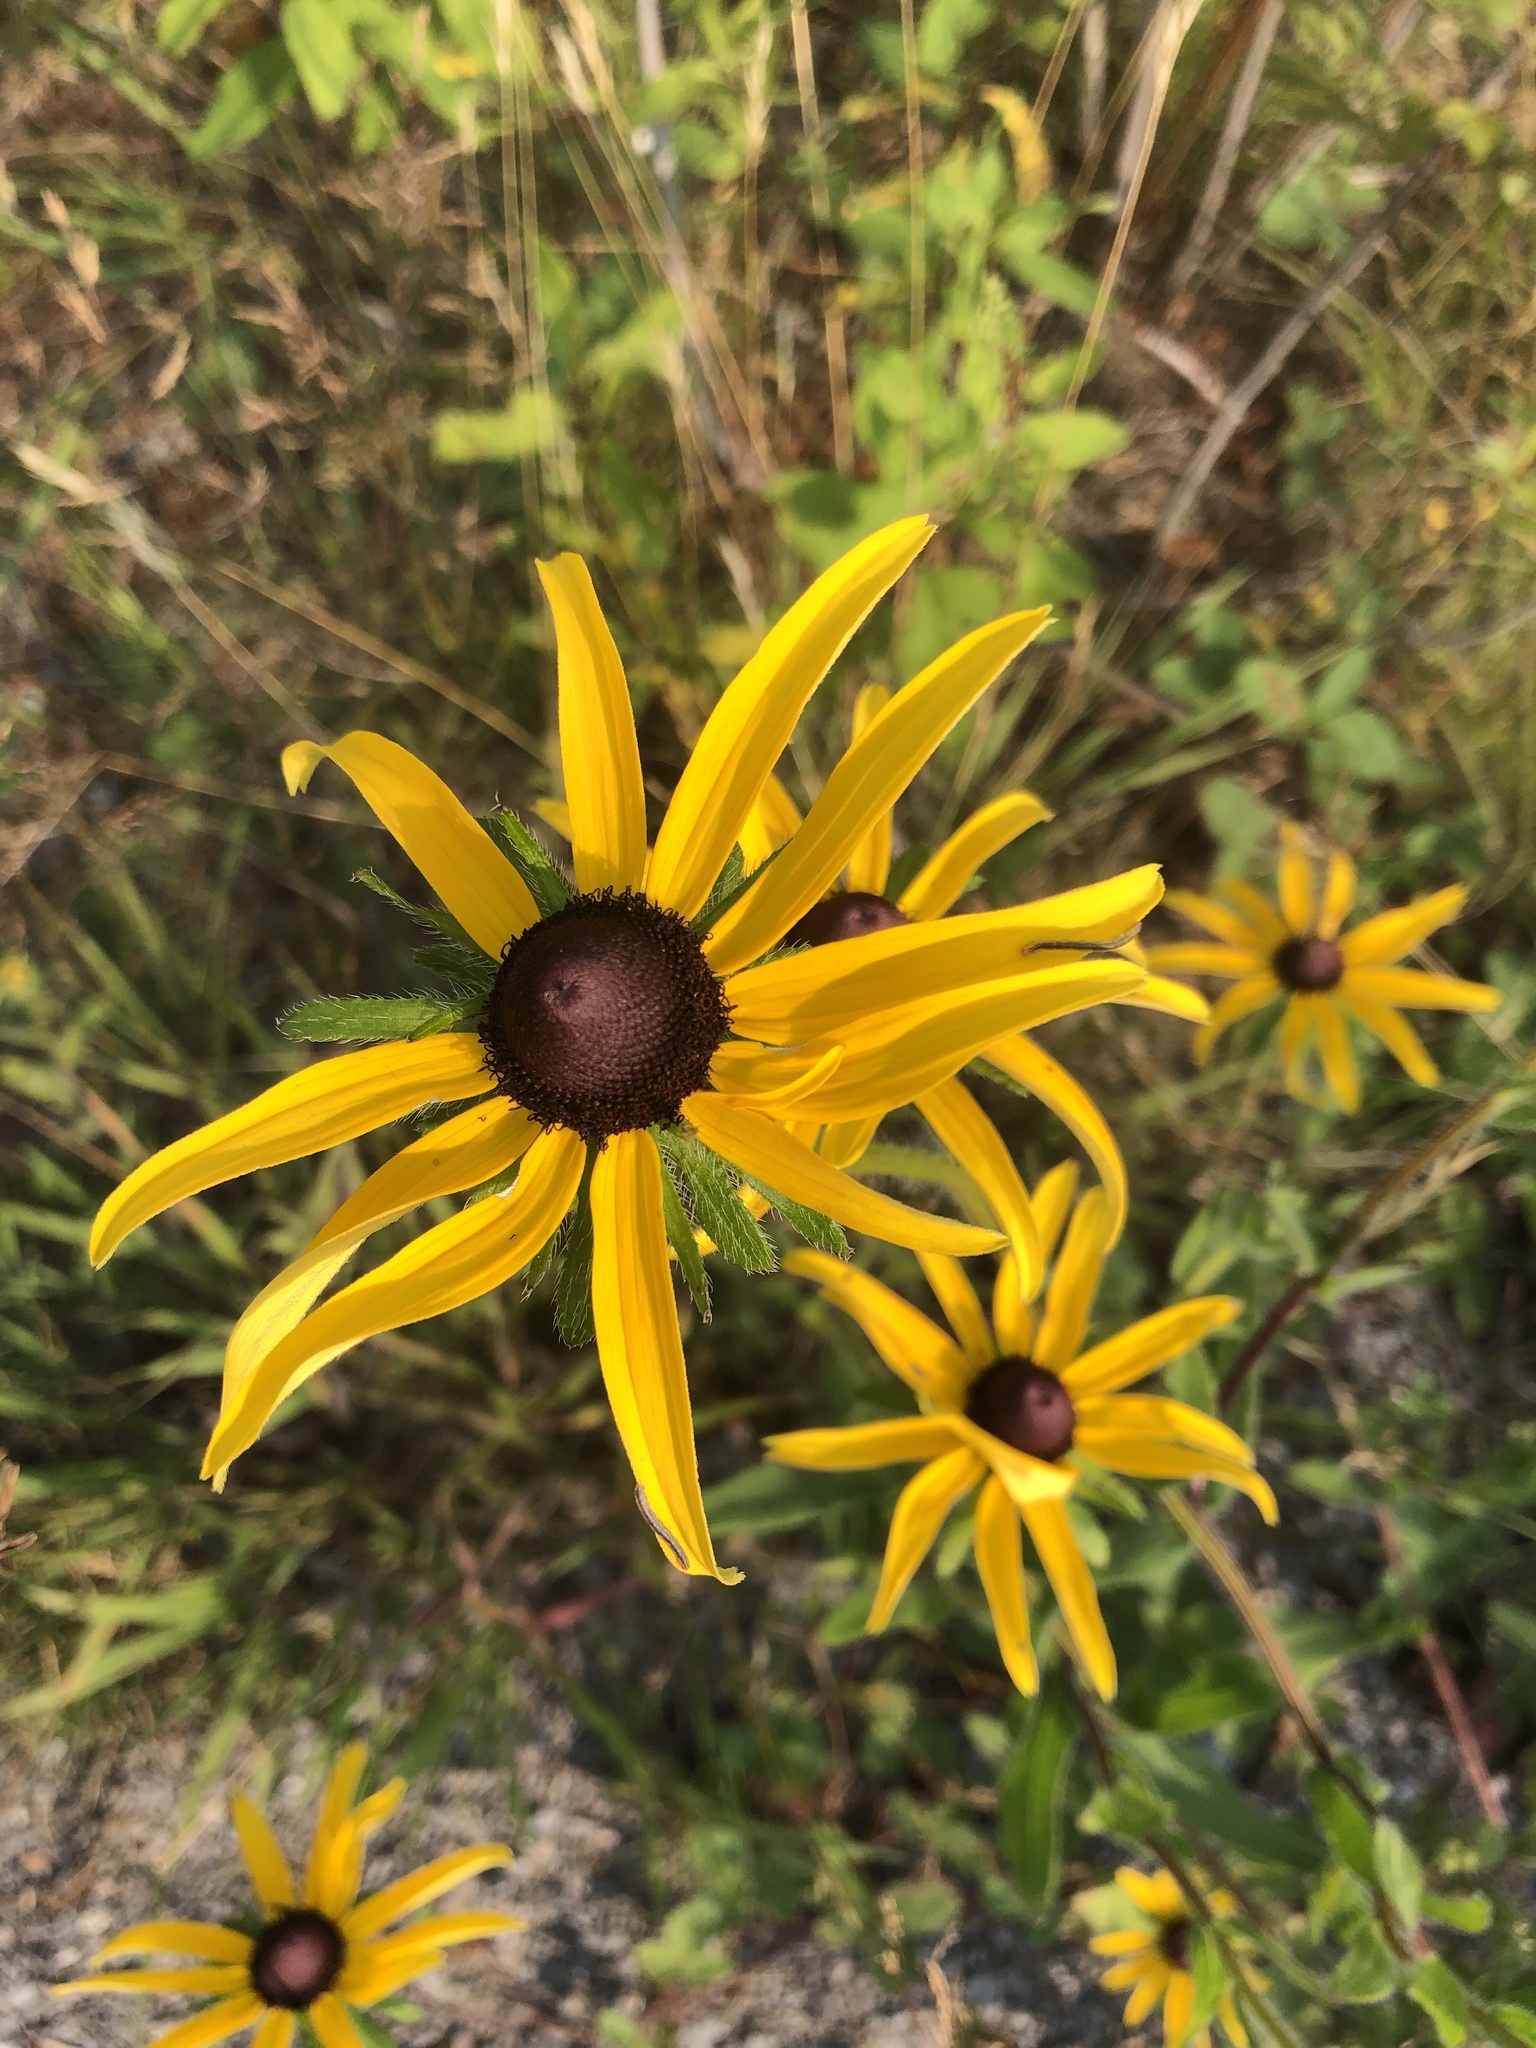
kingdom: Plantae
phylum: Tracheophyta
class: Magnoliopsida
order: Asterales
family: Asteraceae
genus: Rudbeckia
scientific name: Rudbeckia hirta
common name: Black-eyed-susan
